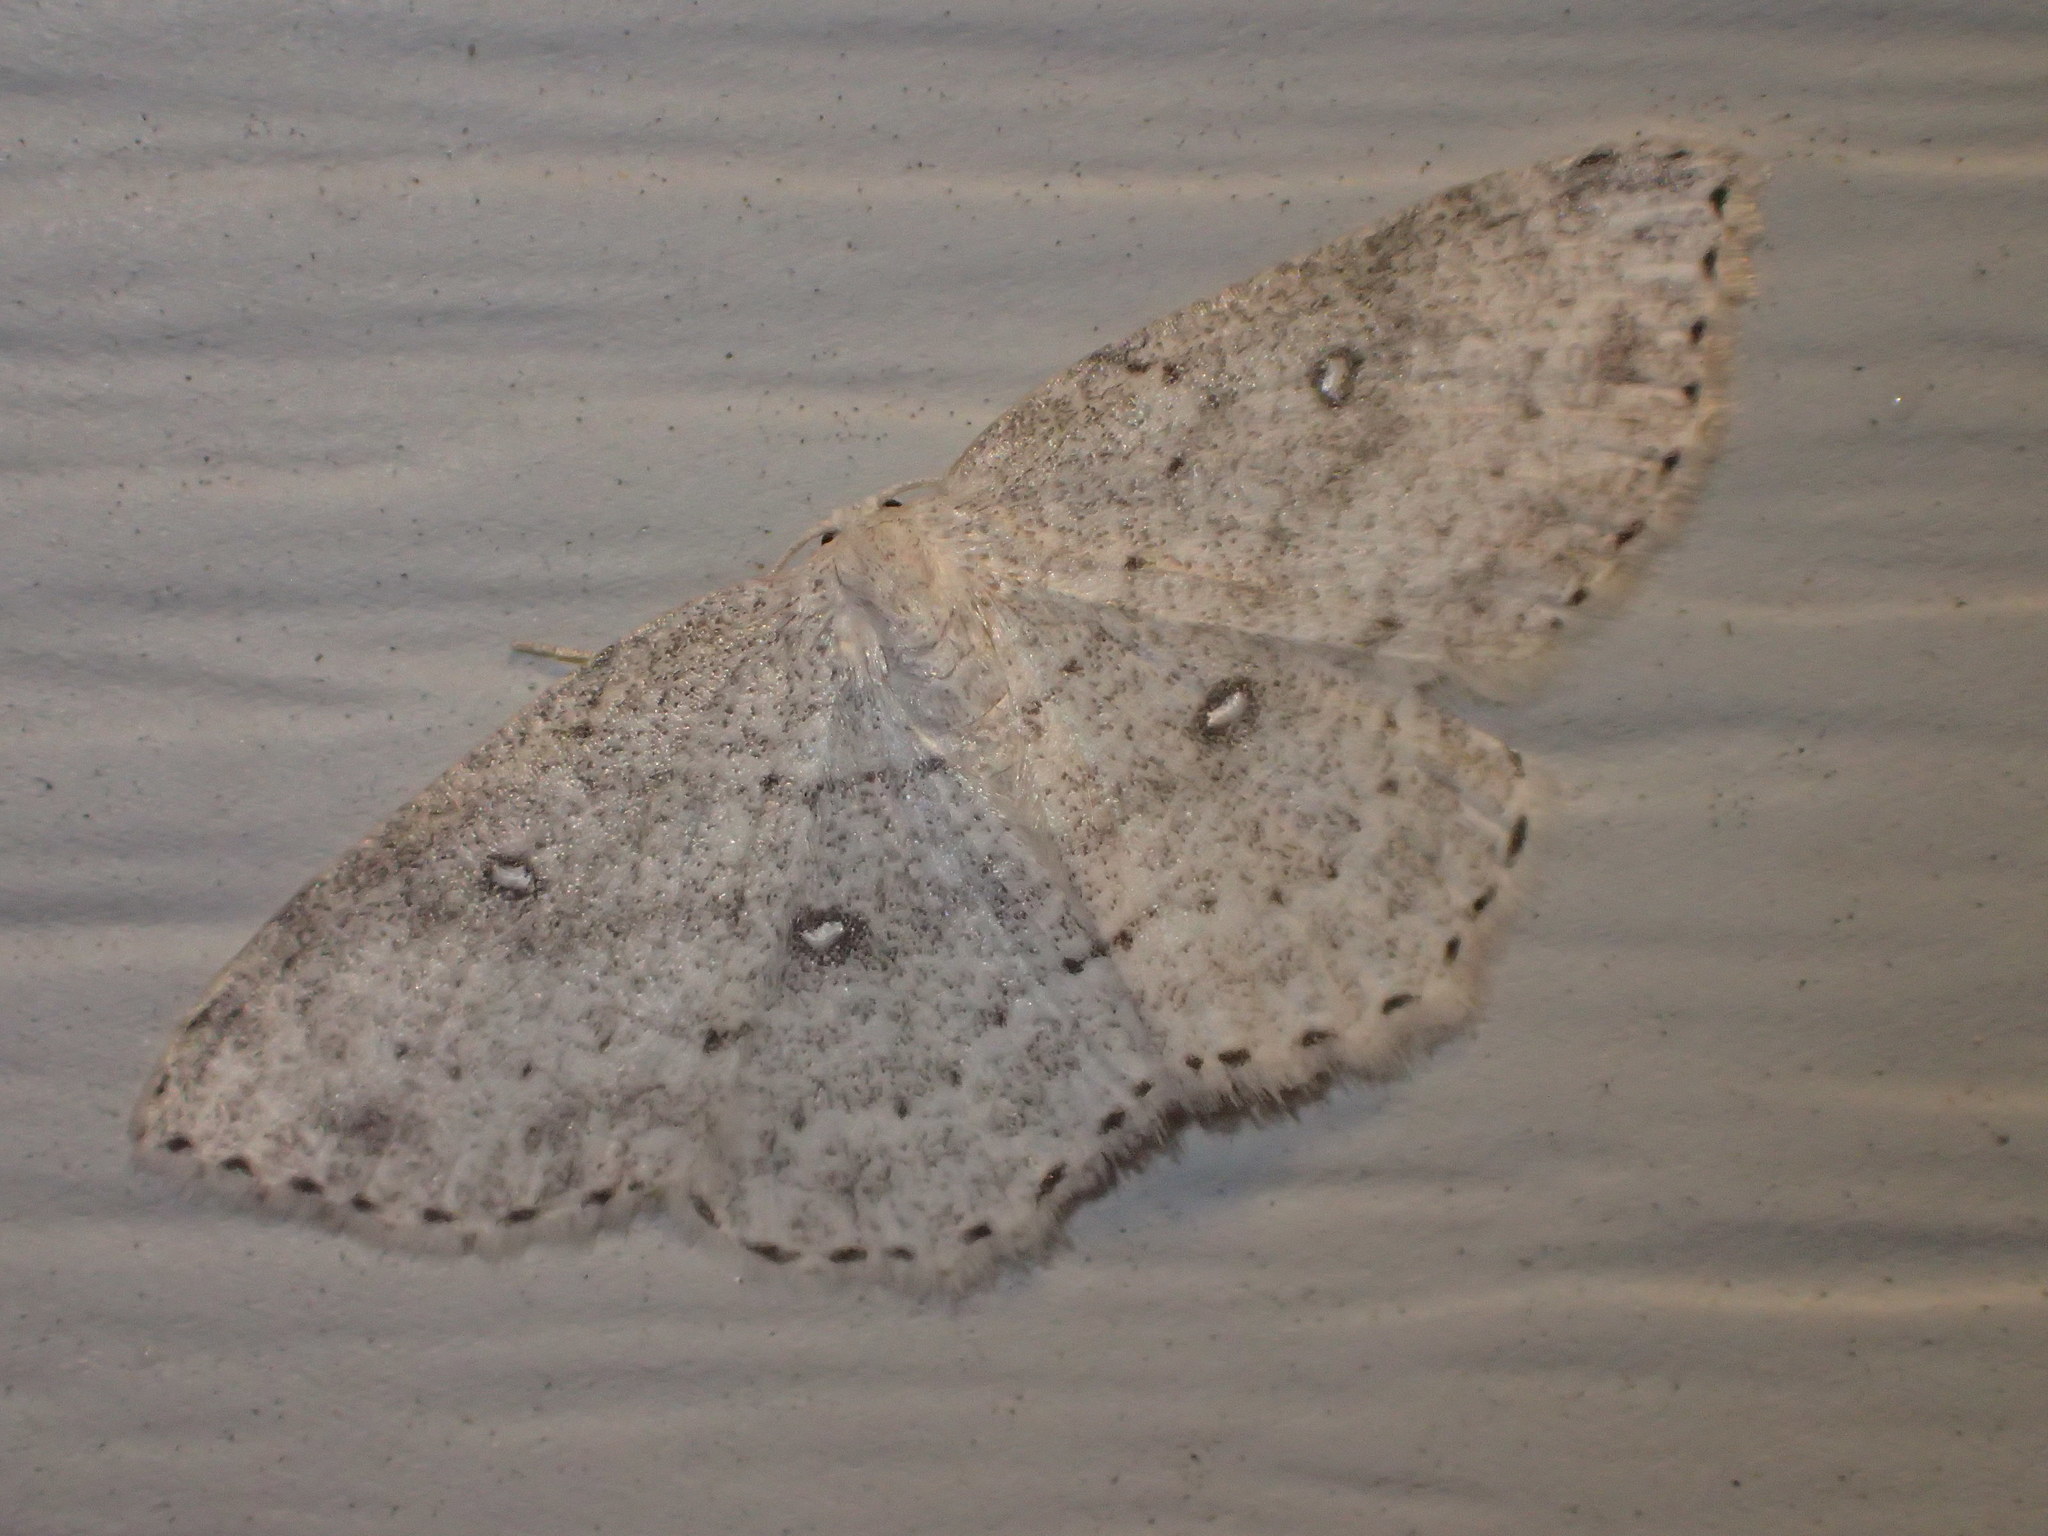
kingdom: Animalia
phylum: Arthropoda
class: Insecta
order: Lepidoptera
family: Geometridae
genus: Cyclophora
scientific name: Cyclophora pendulinaria
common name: Sweet fern geometer
